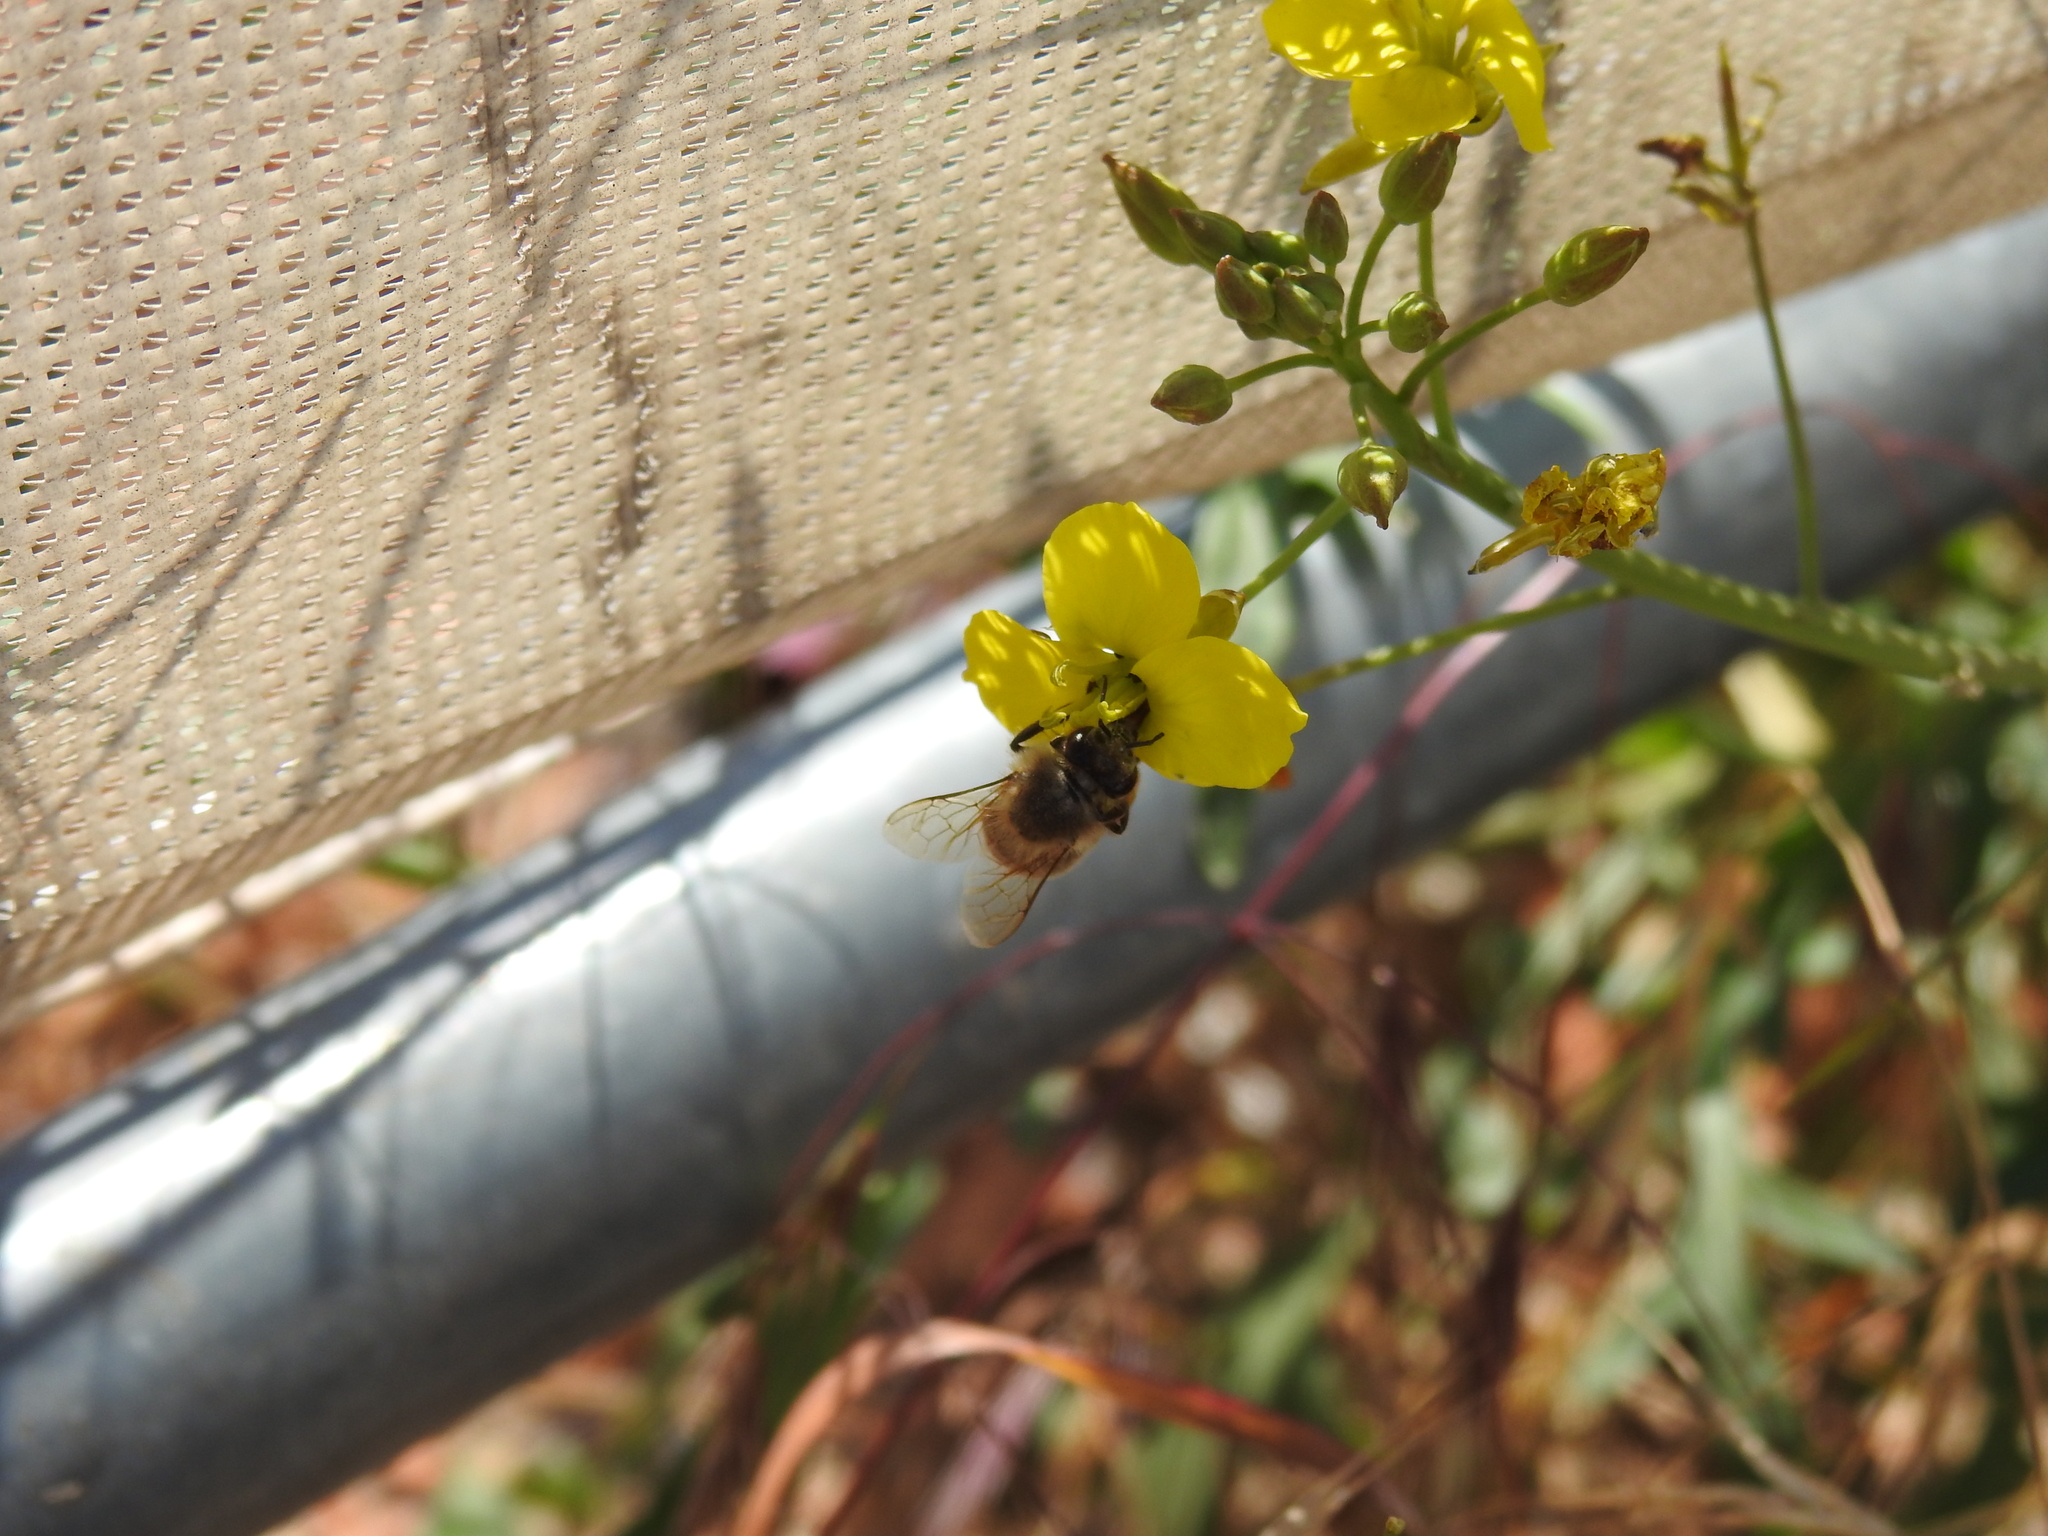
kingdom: Animalia
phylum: Arthropoda
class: Insecta
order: Hymenoptera
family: Apidae
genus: Apis
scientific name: Apis mellifera
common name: Honey bee
